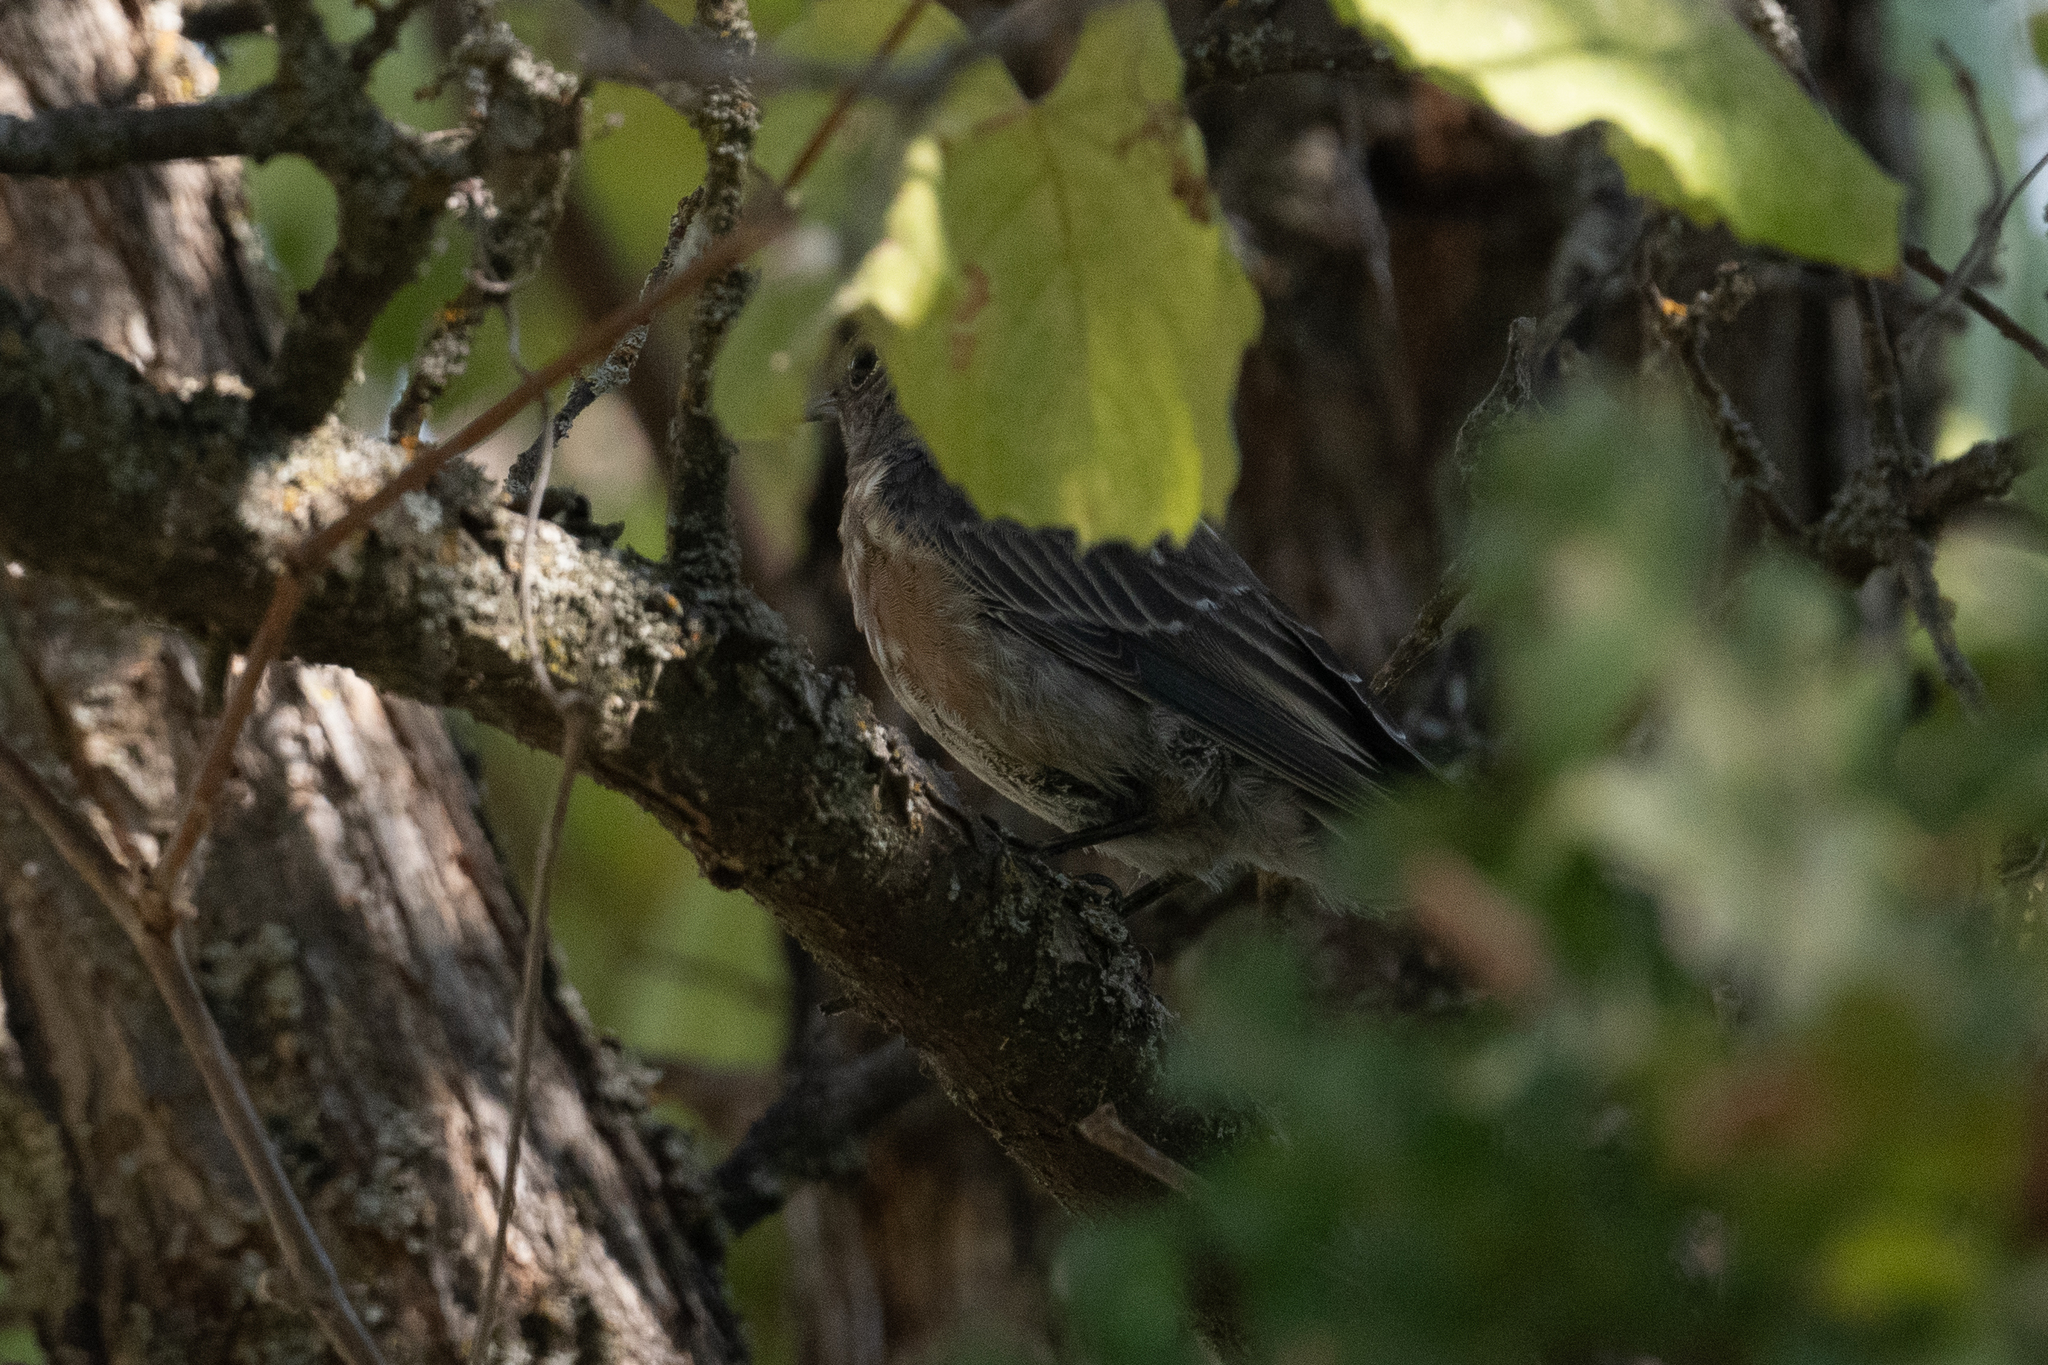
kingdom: Animalia
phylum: Chordata
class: Aves
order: Passeriformes
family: Turdidae
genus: Sialia
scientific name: Sialia mexicana
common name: Western bluebird
